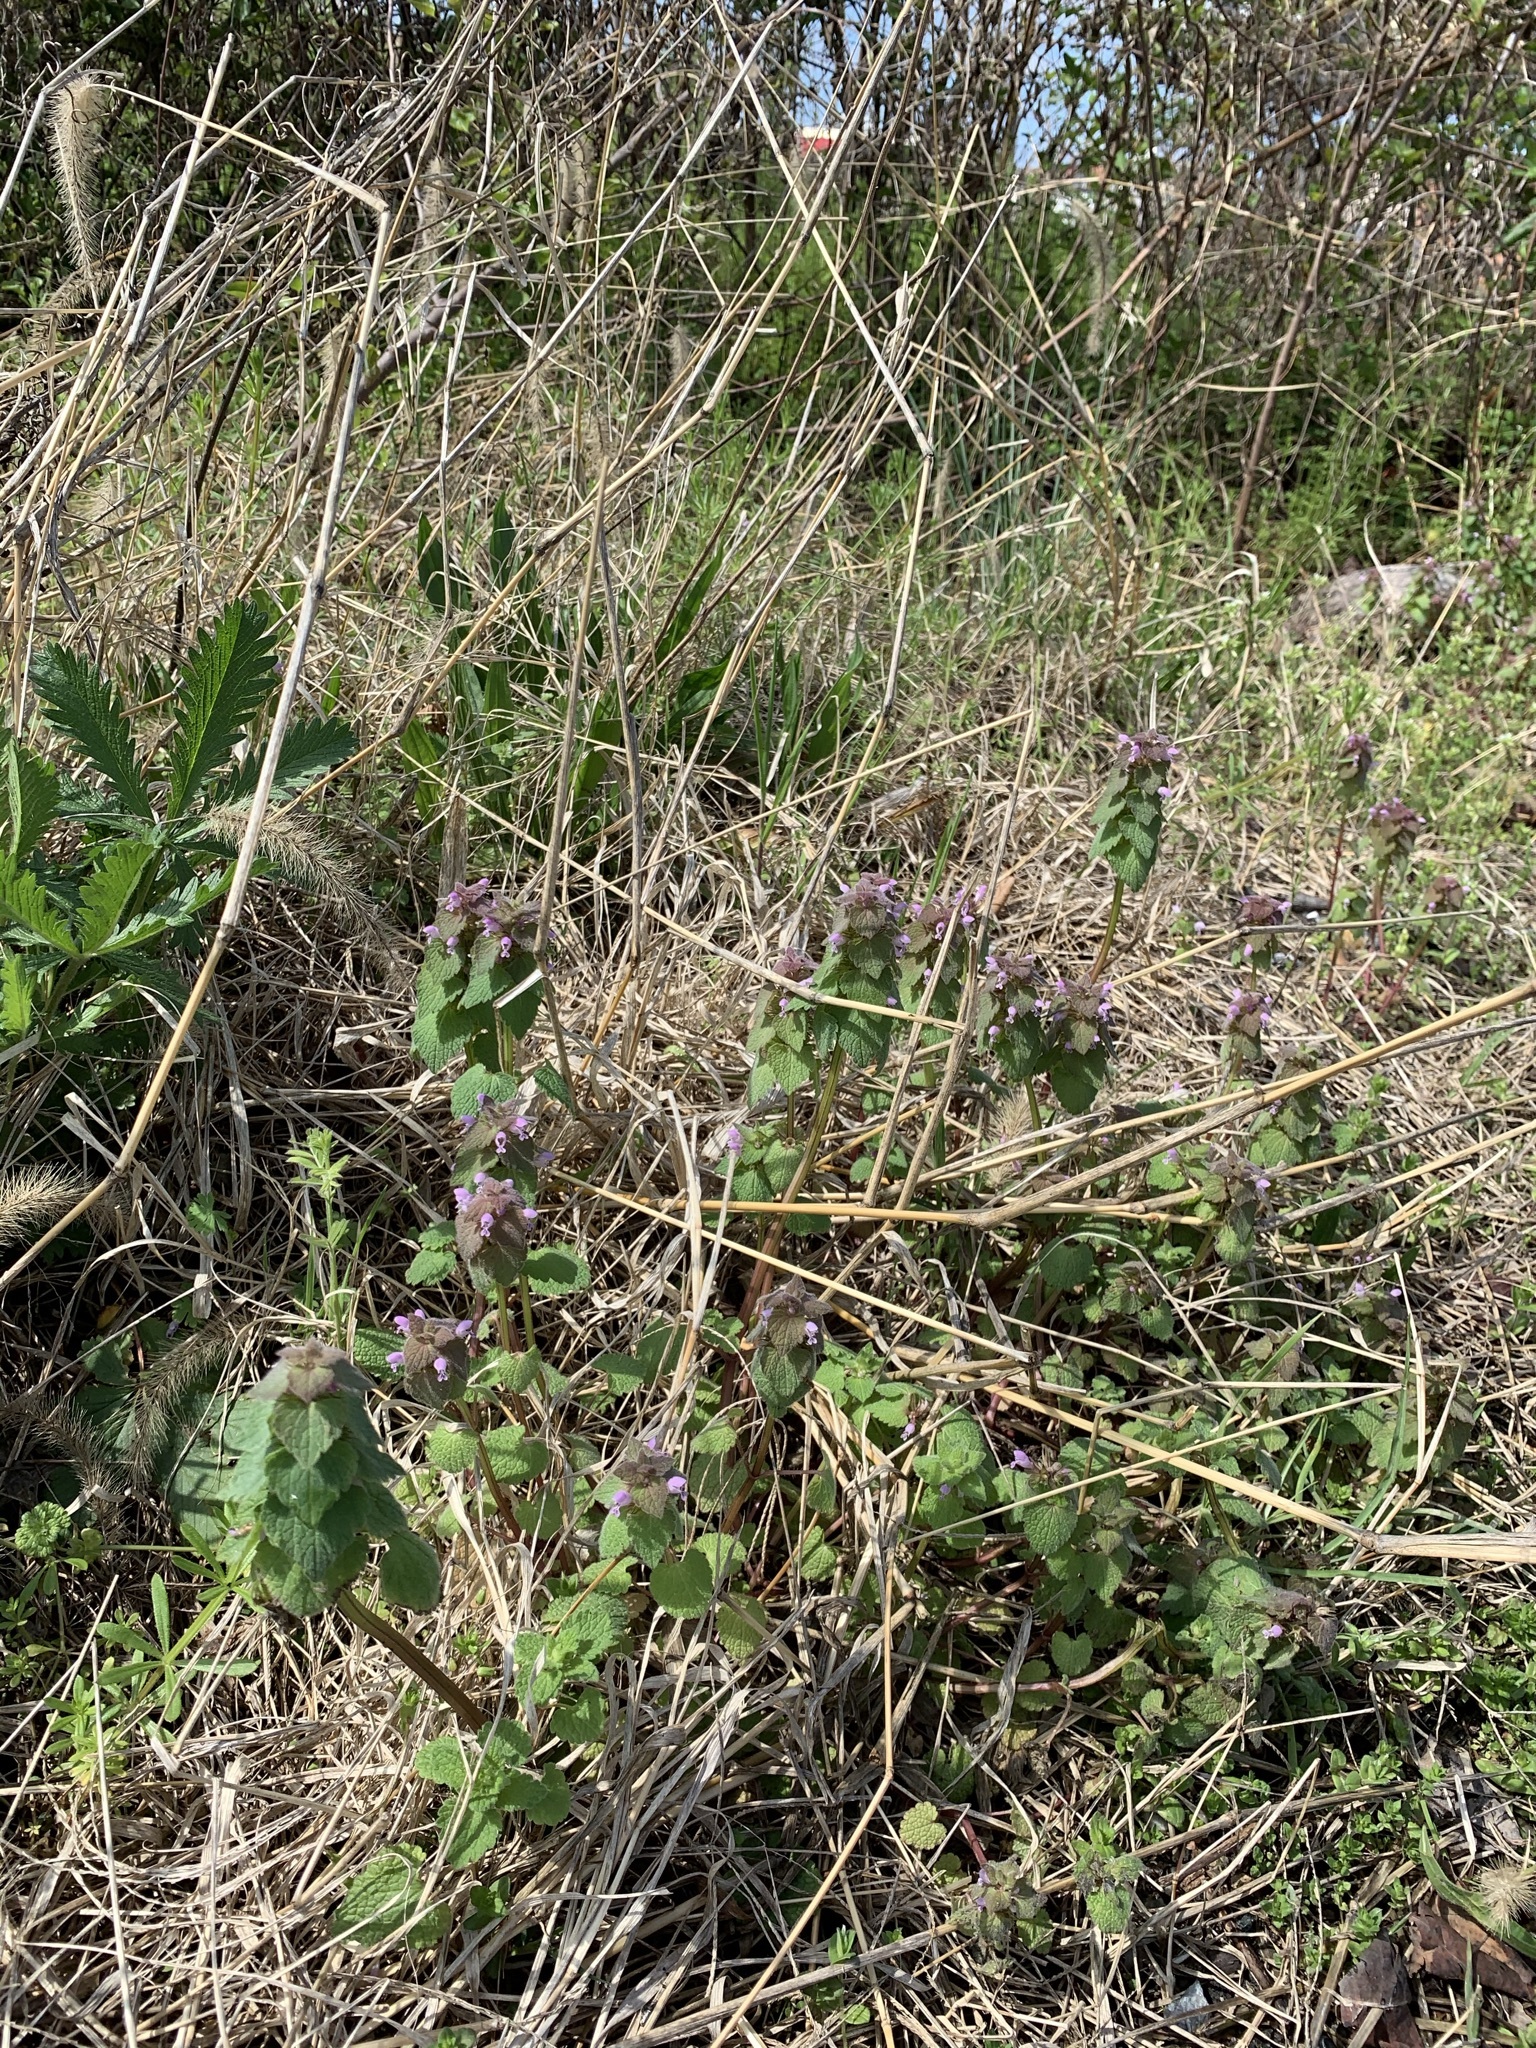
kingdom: Plantae
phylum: Tracheophyta
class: Magnoliopsida
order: Lamiales
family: Lamiaceae
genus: Lamium
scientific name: Lamium purpureum
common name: Red dead-nettle
